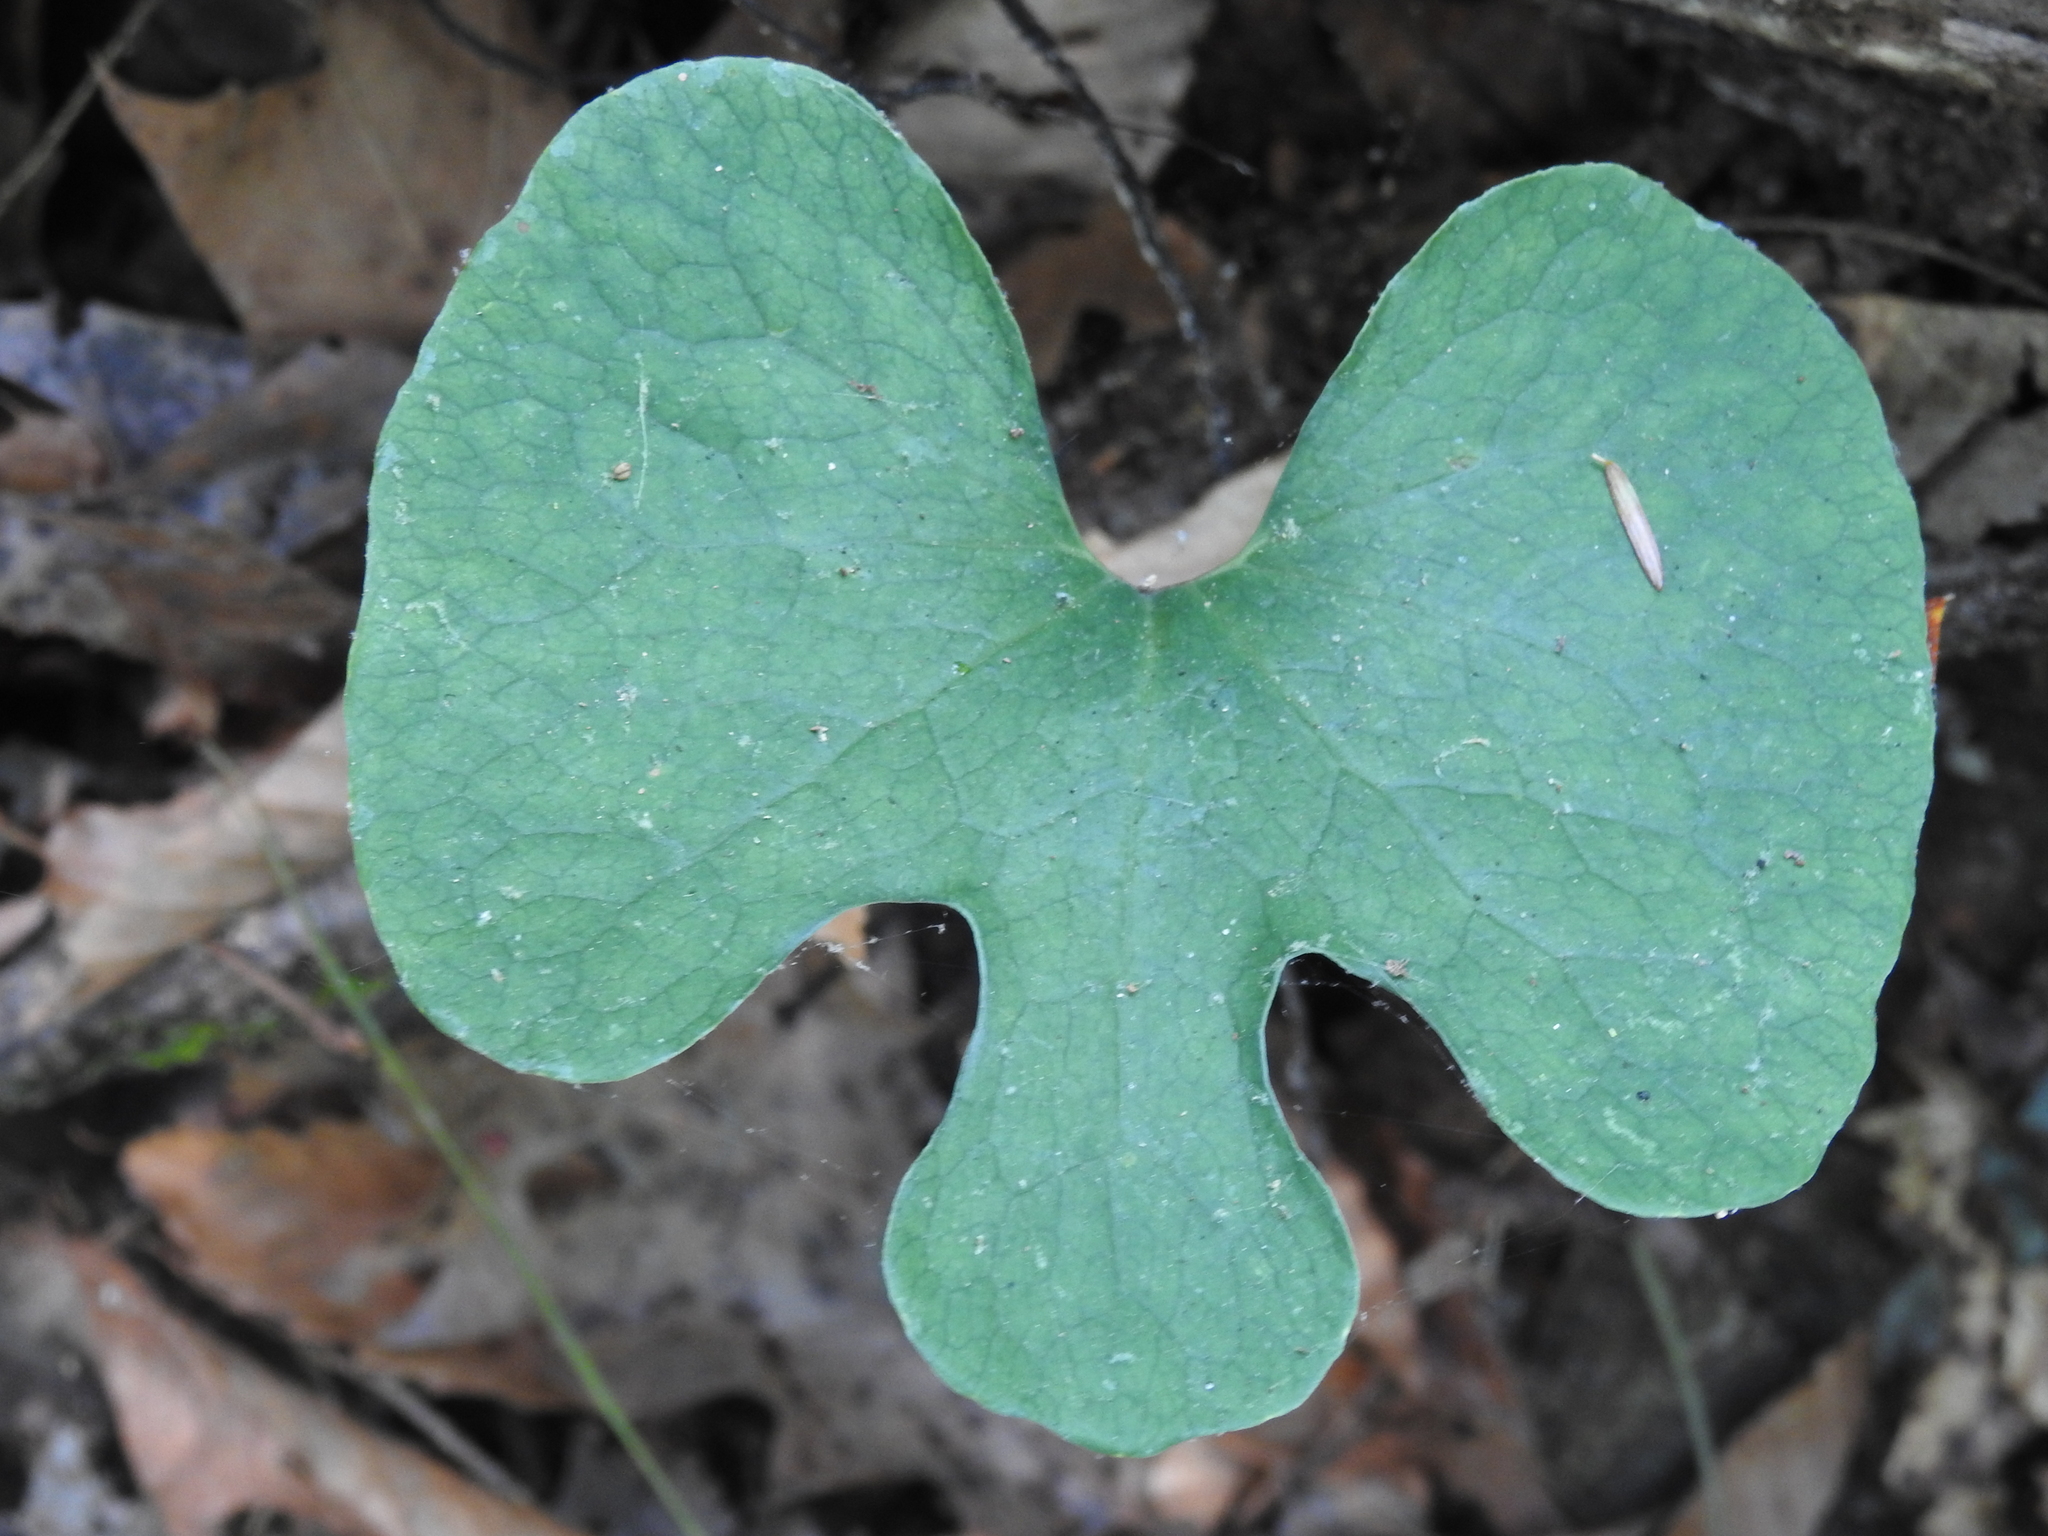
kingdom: Plantae
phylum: Tracheophyta
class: Magnoliopsida
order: Ranunculales
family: Papaveraceae
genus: Sanguinaria
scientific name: Sanguinaria canadensis
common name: Bloodroot
